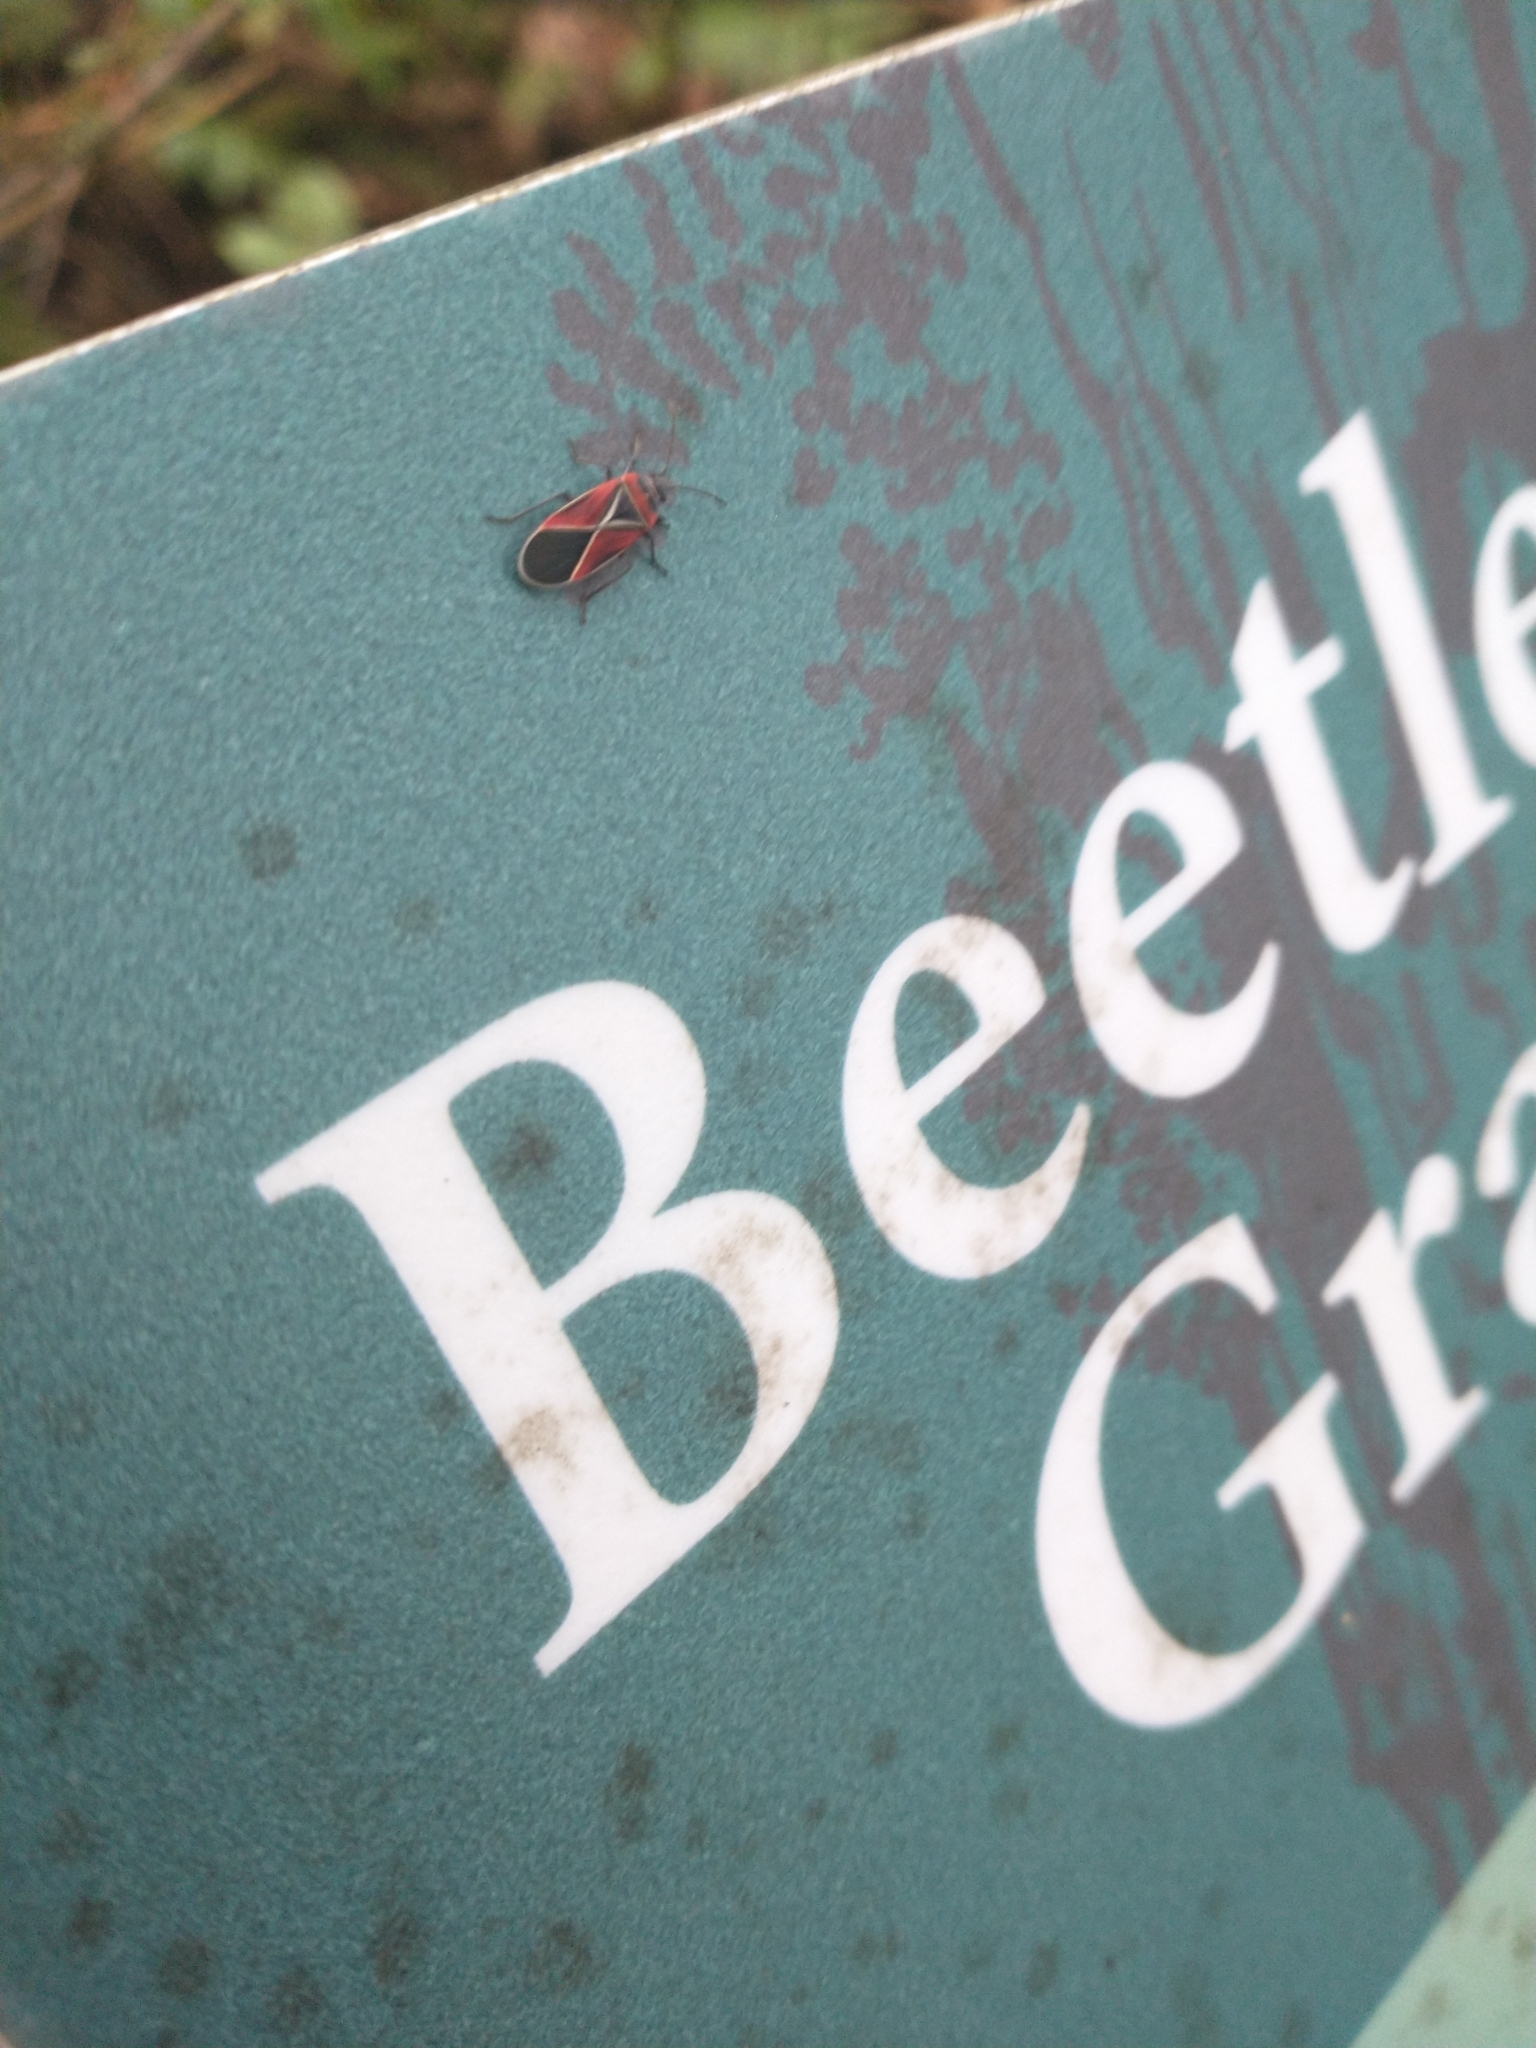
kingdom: Animalia
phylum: Arthropoda
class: Insecta
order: Hemiptera
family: Lygaeidae
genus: Neacoryphus
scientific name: Neacoryphus bicrucis
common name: Lygaeid bug
